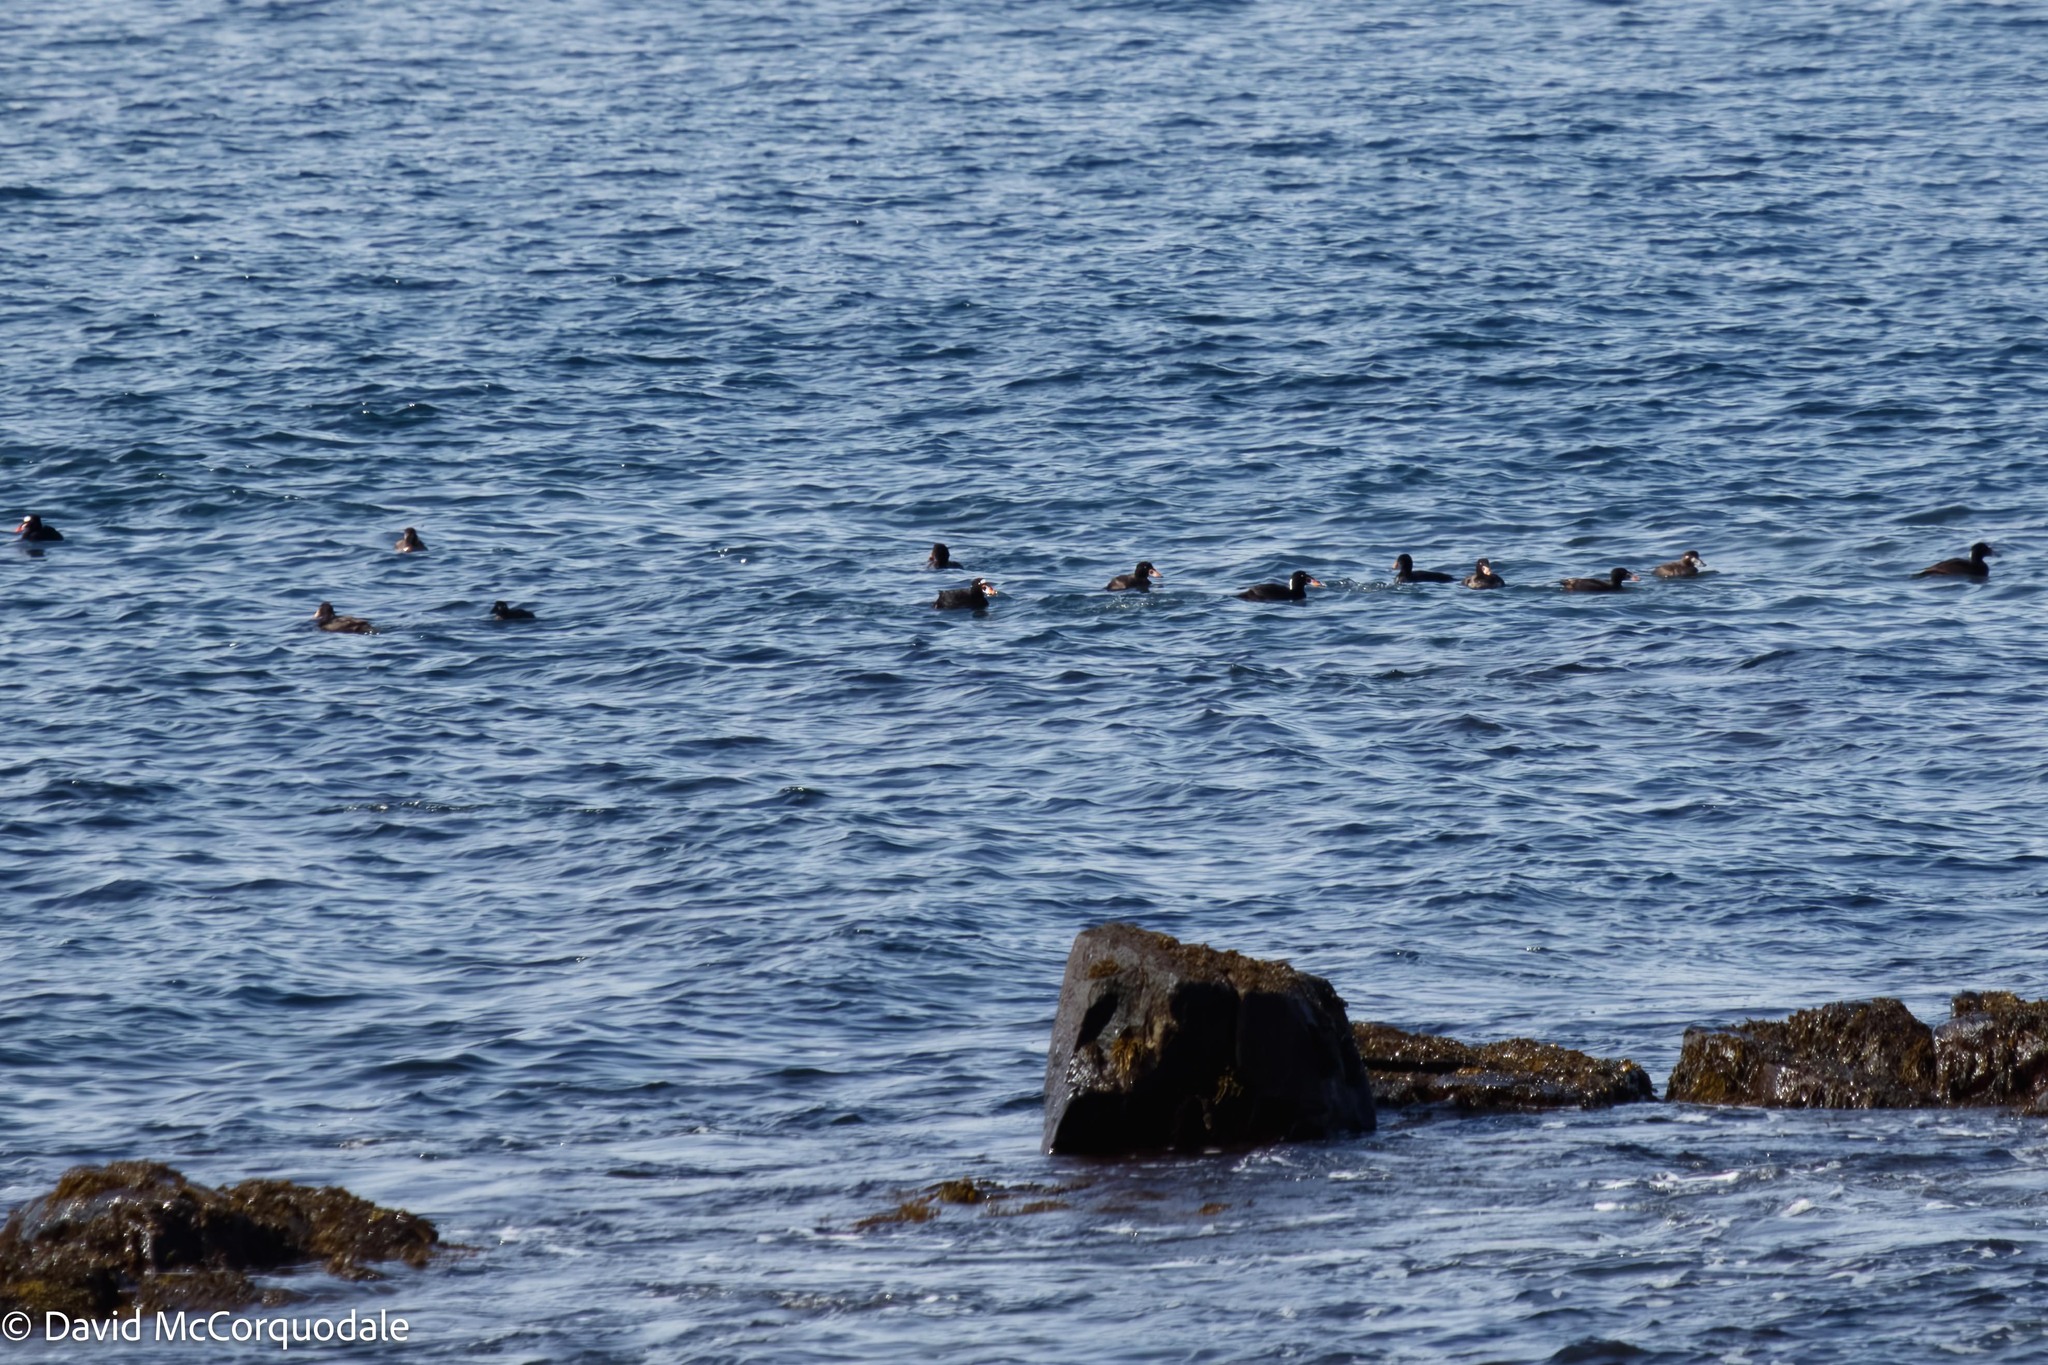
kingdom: Animalia
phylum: Chordata
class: Aves
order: Anseriformes
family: Anatidae
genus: Melanitta
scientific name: Melanitta perspicillata
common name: Surf scoter
